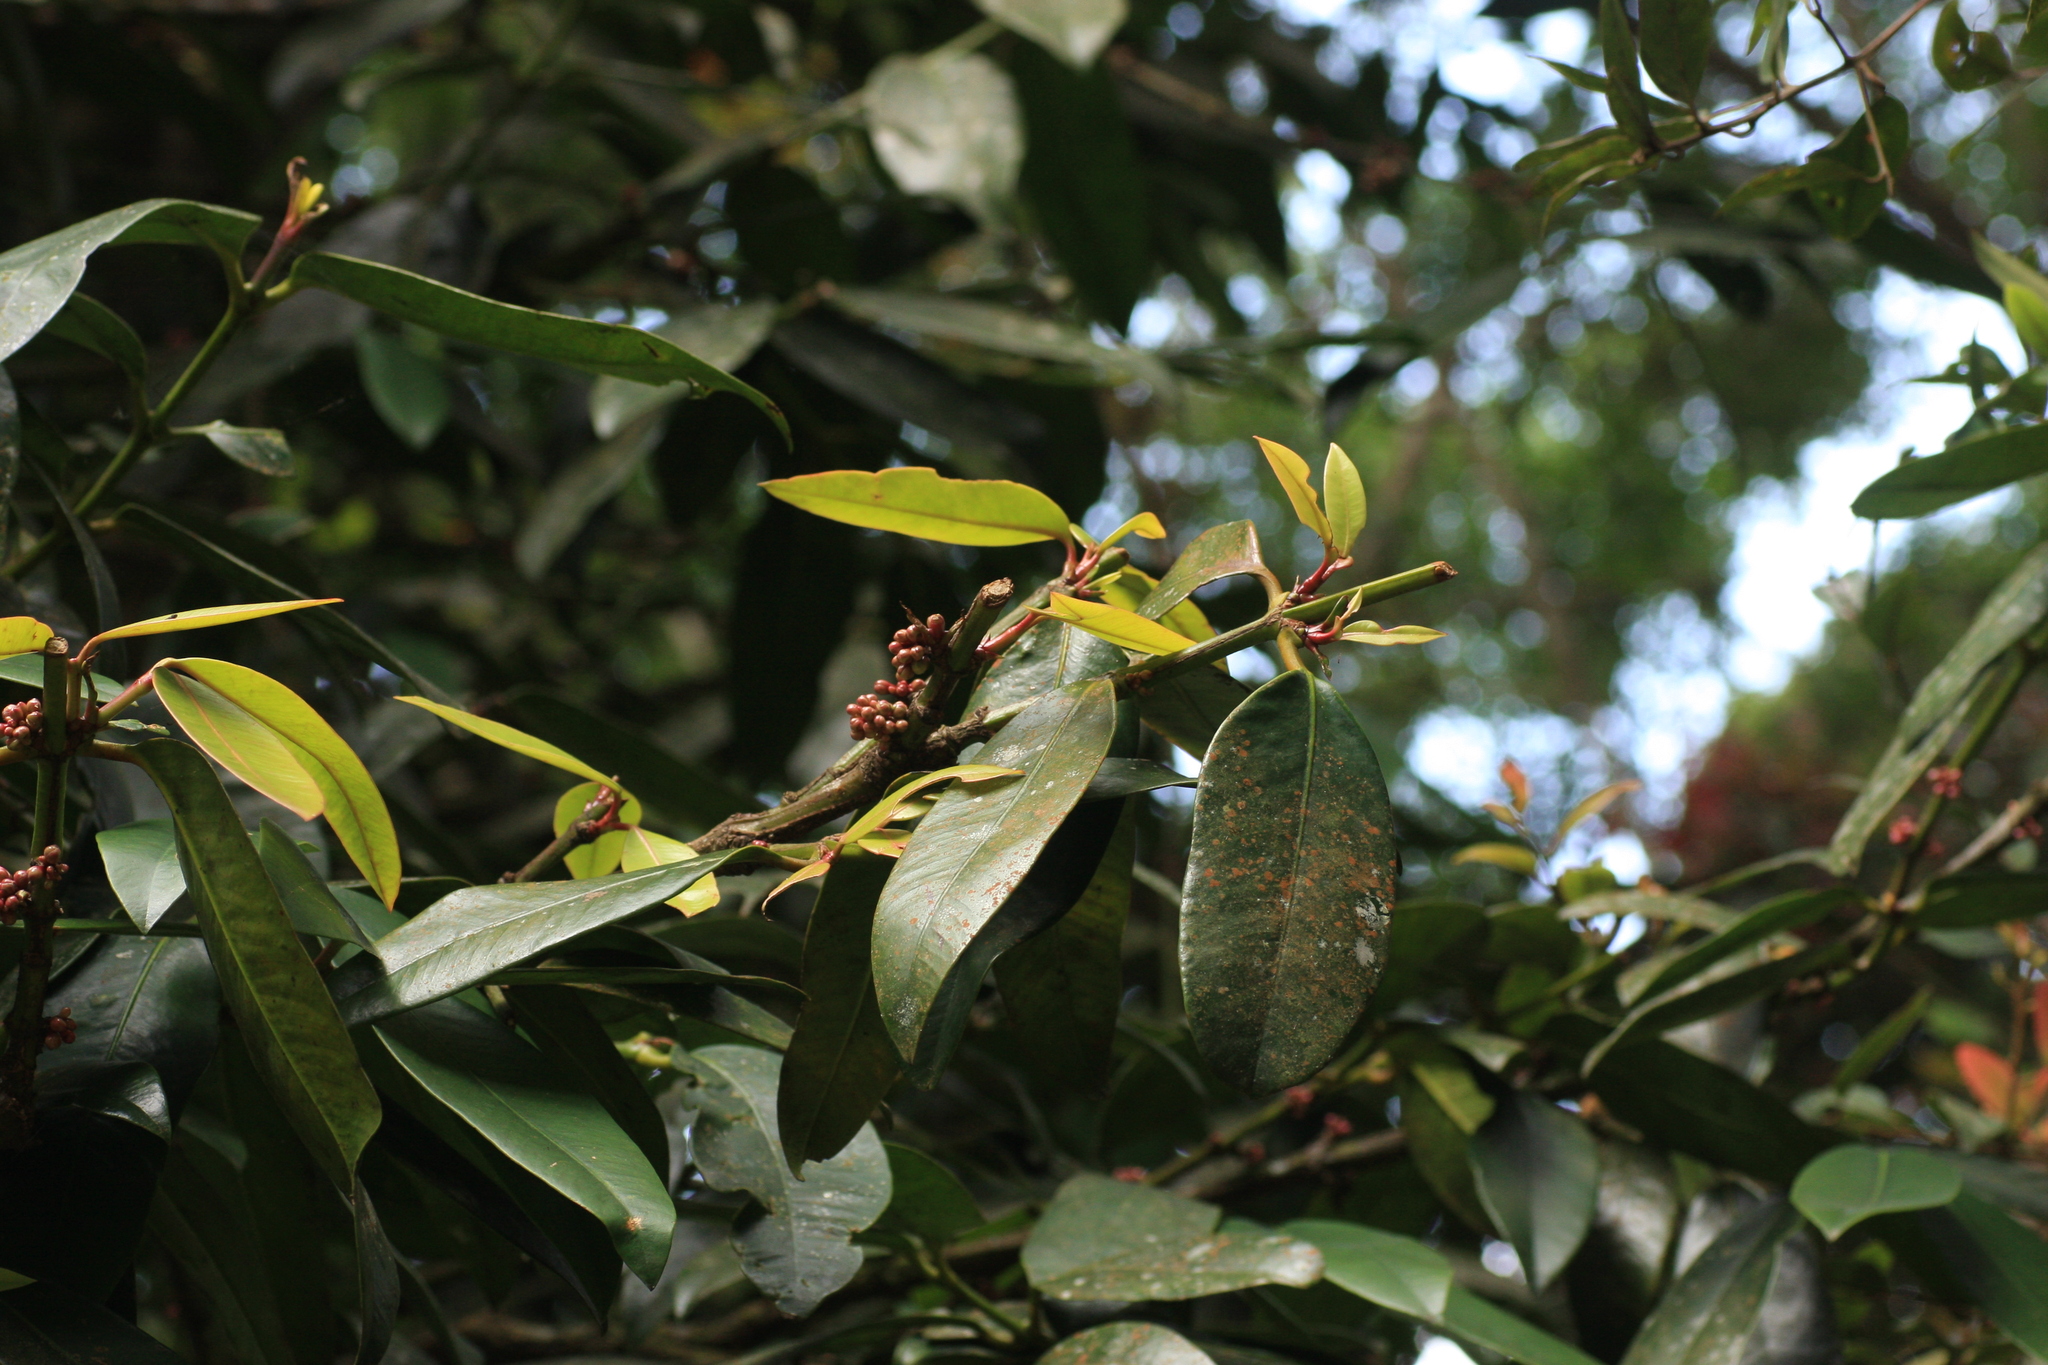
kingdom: Plantae
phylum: Tracheophyta
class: Magnoliopsida
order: Malpighiales
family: Clusiaceae
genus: Garcinia
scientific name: Garcinia pushpangadaniana
